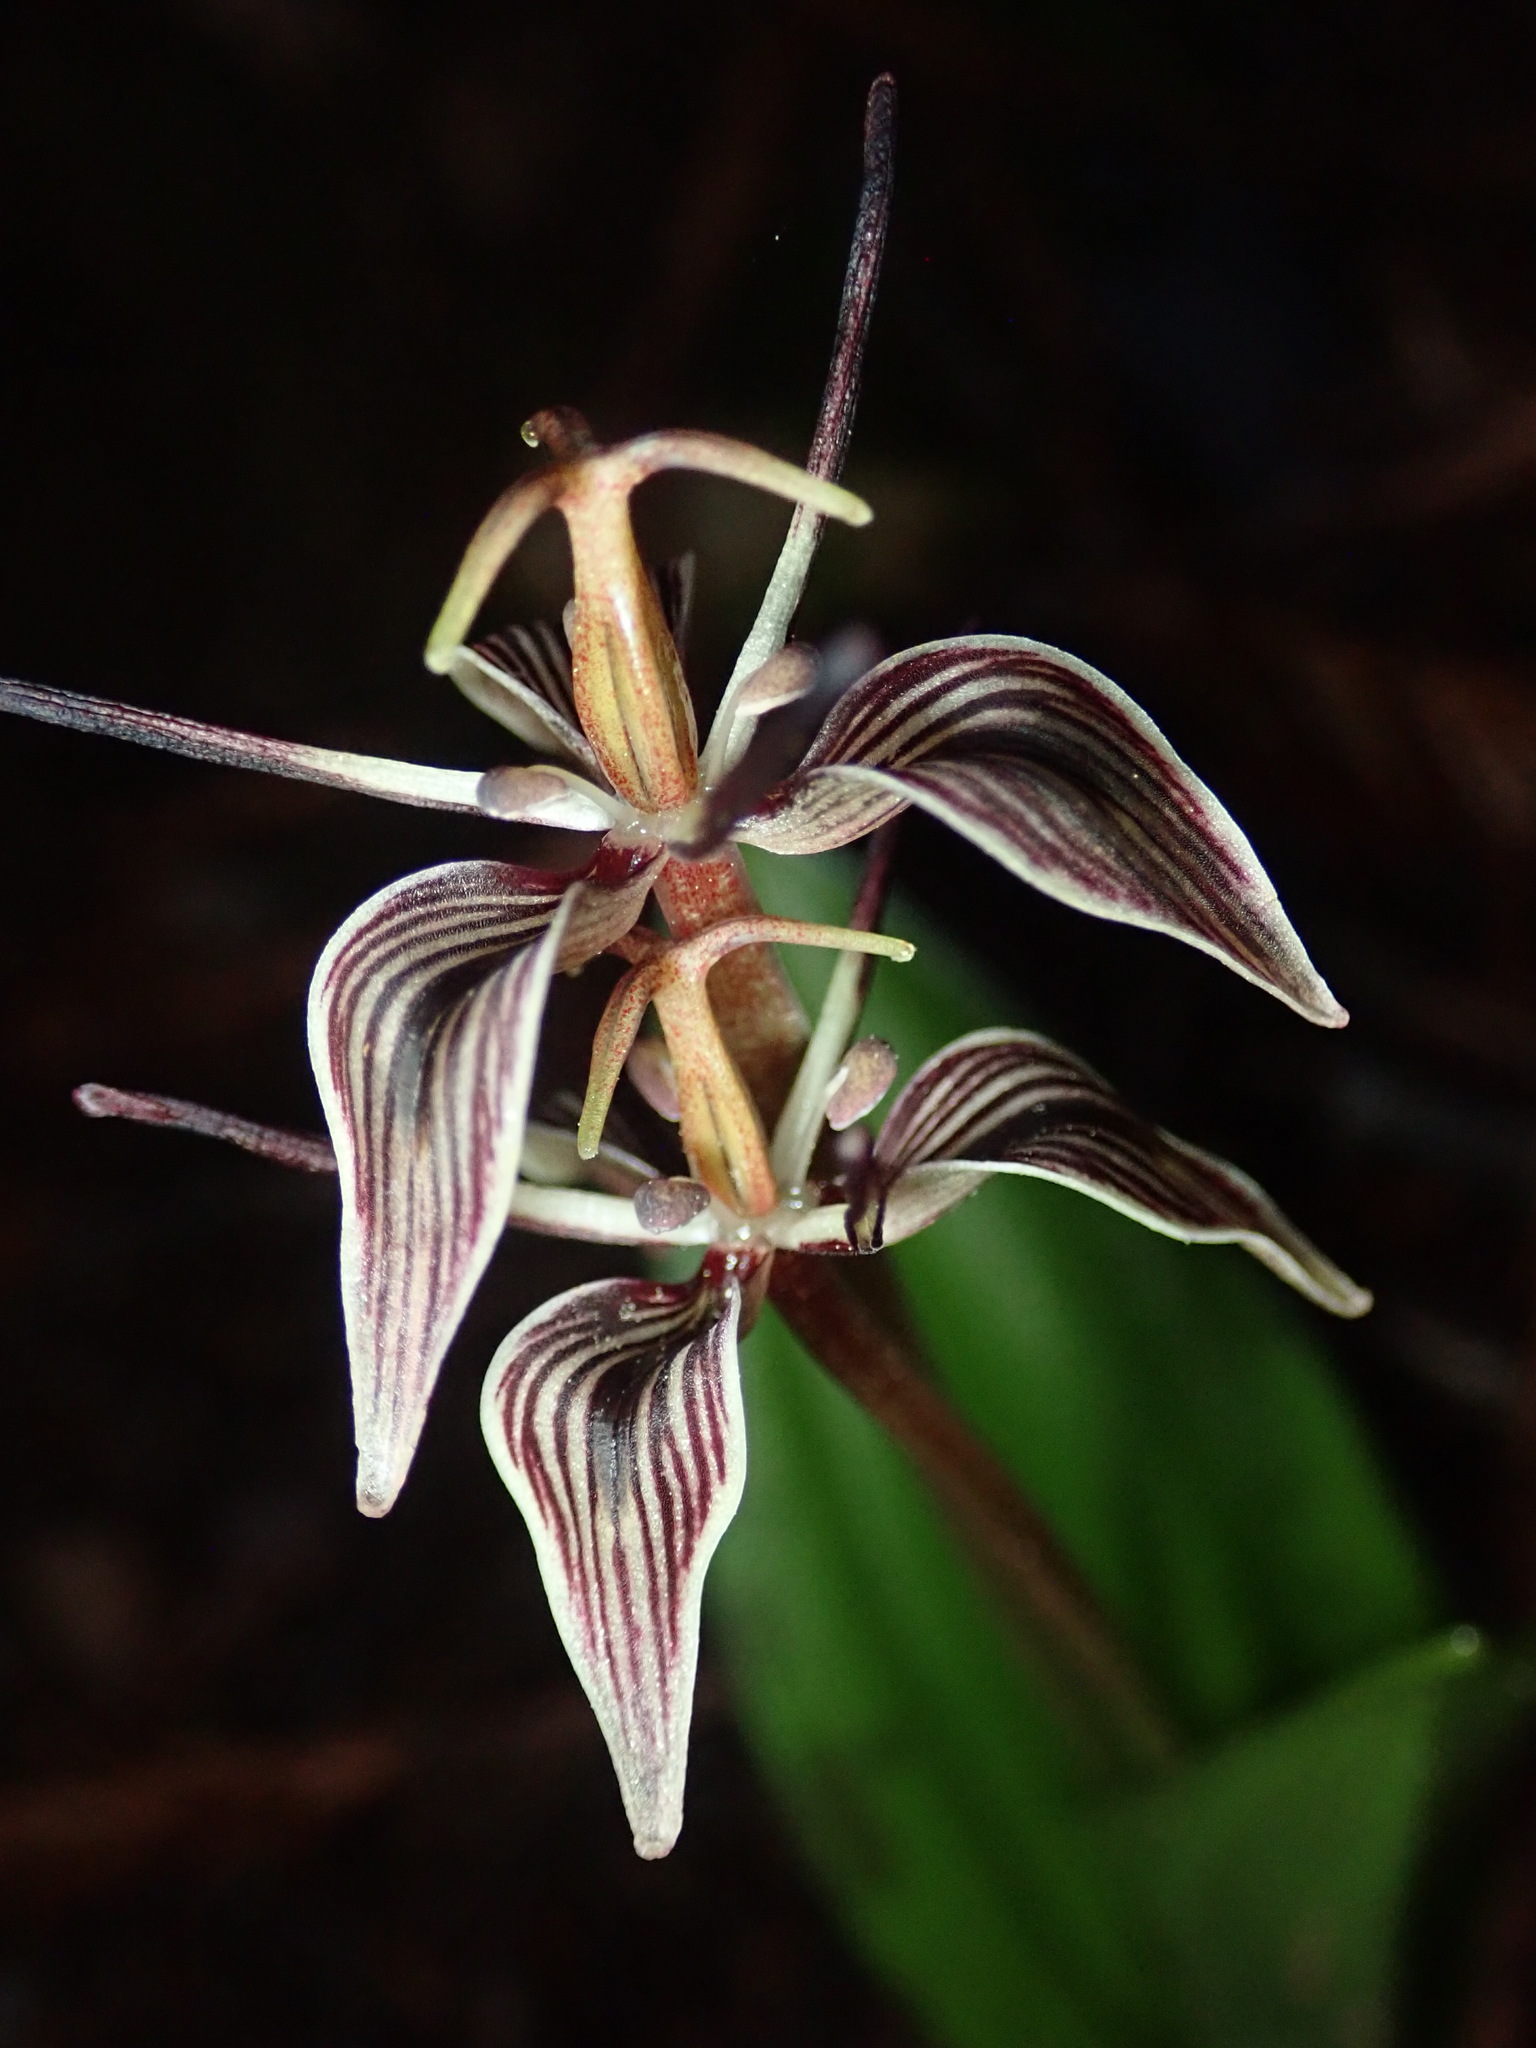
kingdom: Plantae
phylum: Tracheophyta
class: Liliopsida
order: Liliales
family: Liliaceae
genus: Scoliopus
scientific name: Scoliopus bigelovii
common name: Foetid adder's-tongue
